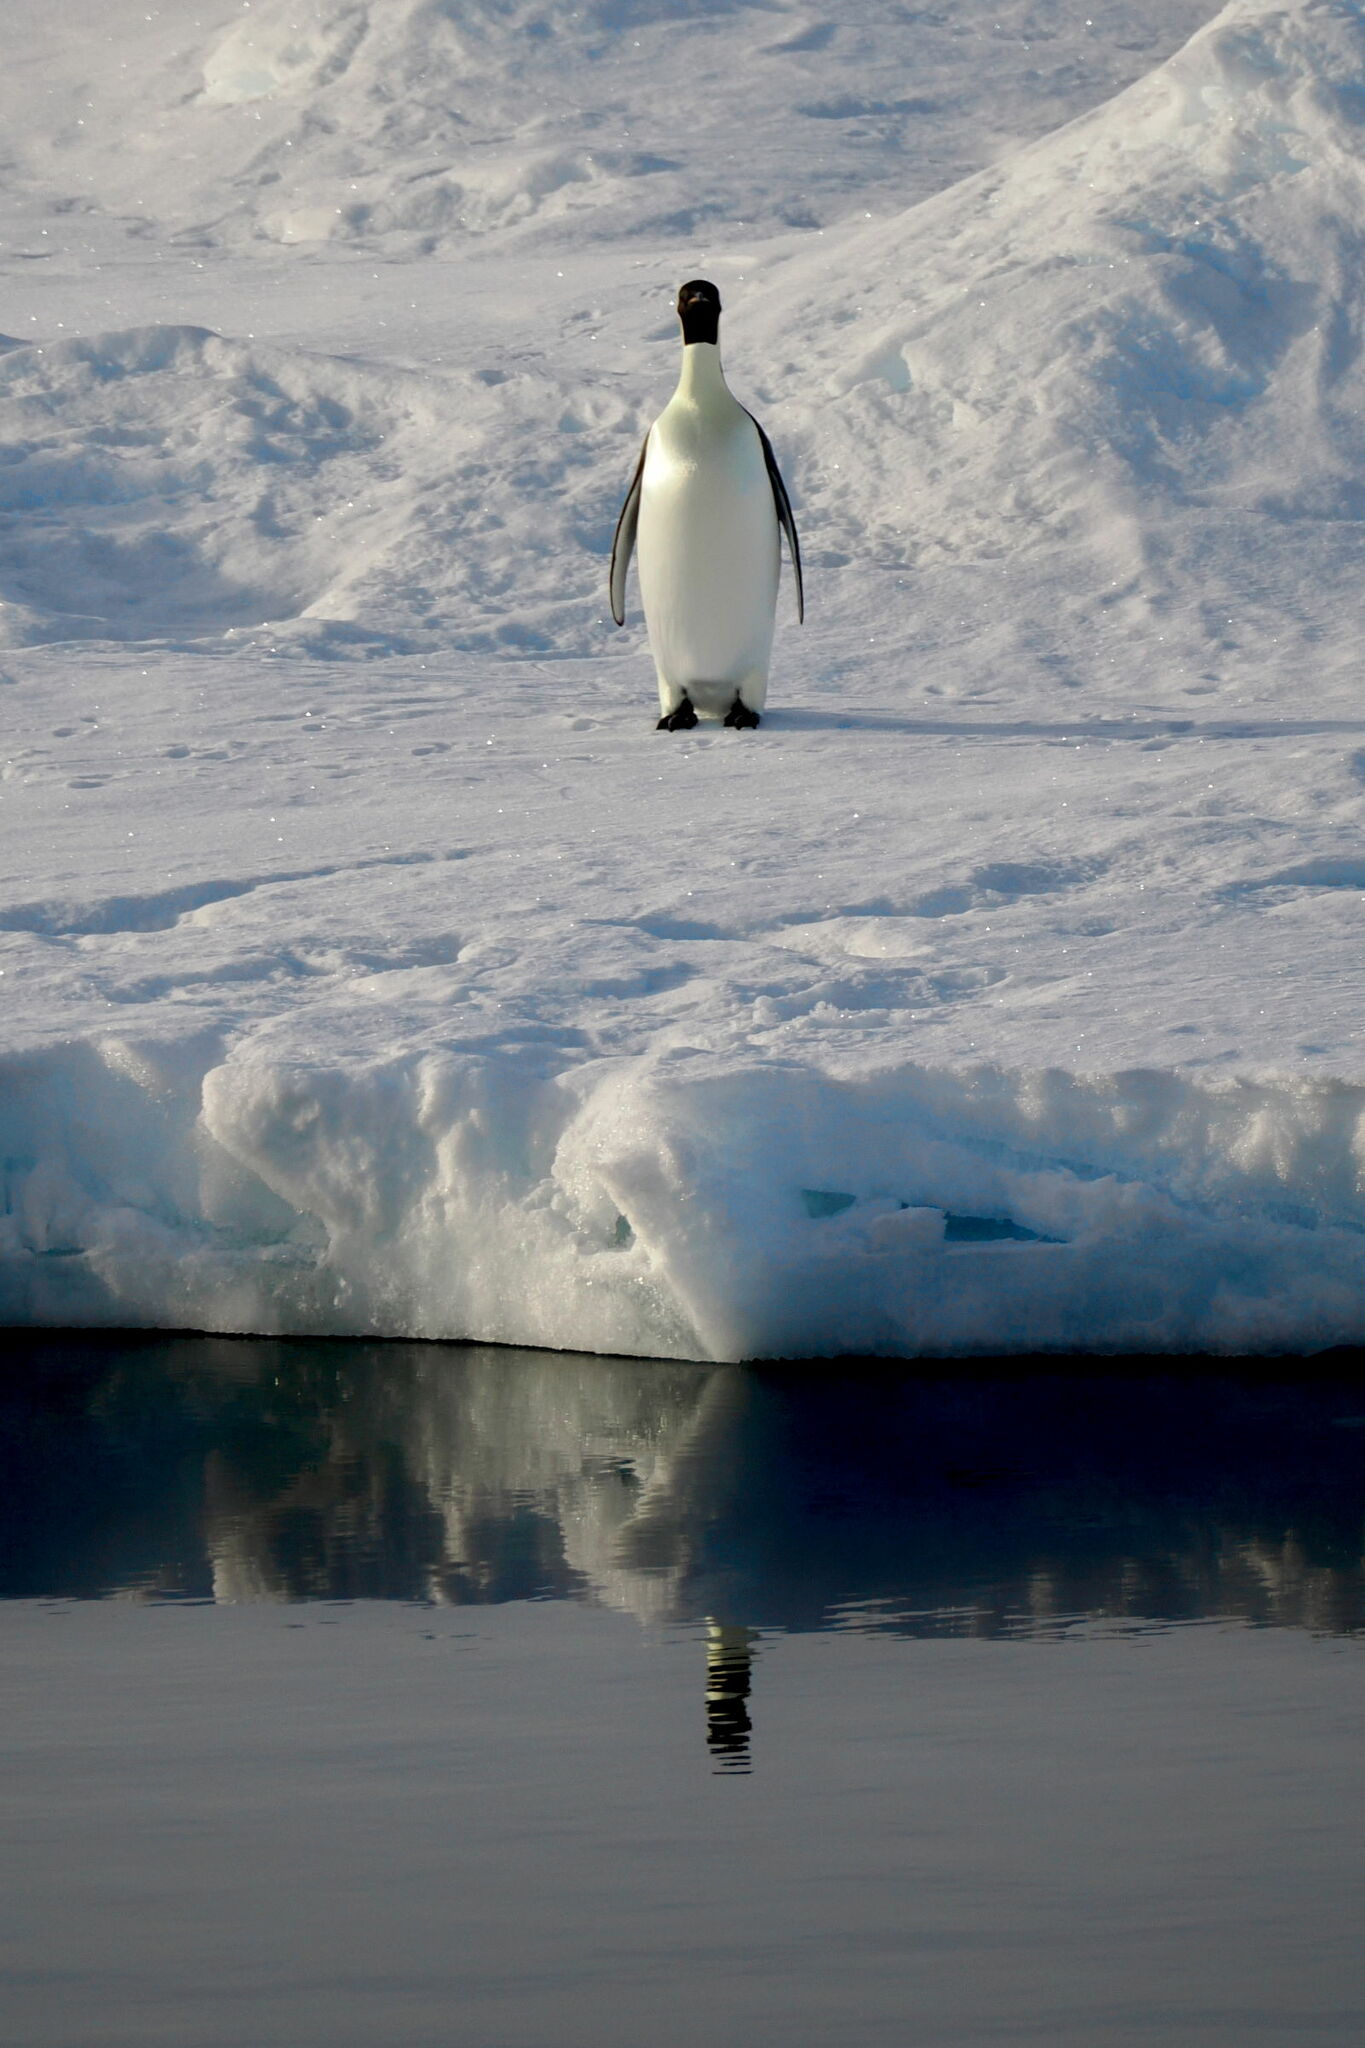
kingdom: Animalia
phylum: Chordata
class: Aves
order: Sphenisciformes
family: Spheniscidae
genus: Aptenodytes
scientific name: Aptenodytes forsteri
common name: Emperor penguin
